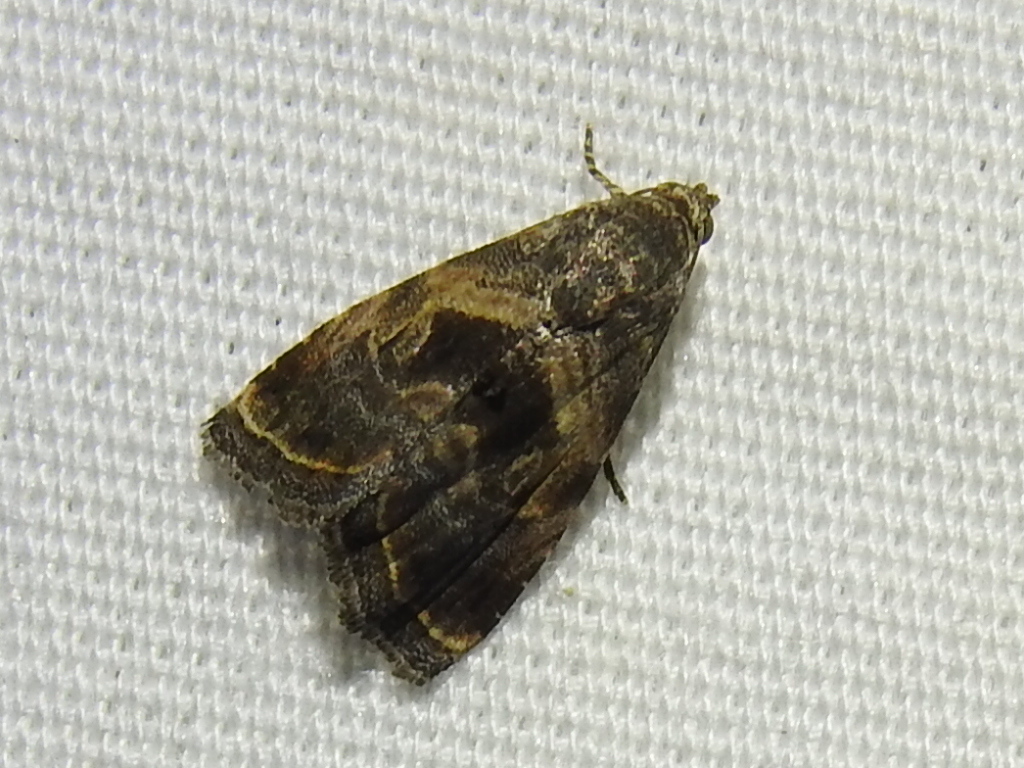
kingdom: Animalia
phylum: Arthropoda
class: Insecta
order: Lepidoptera
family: Noctuidae
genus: Tripudia
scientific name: Tripudia quadrifera
